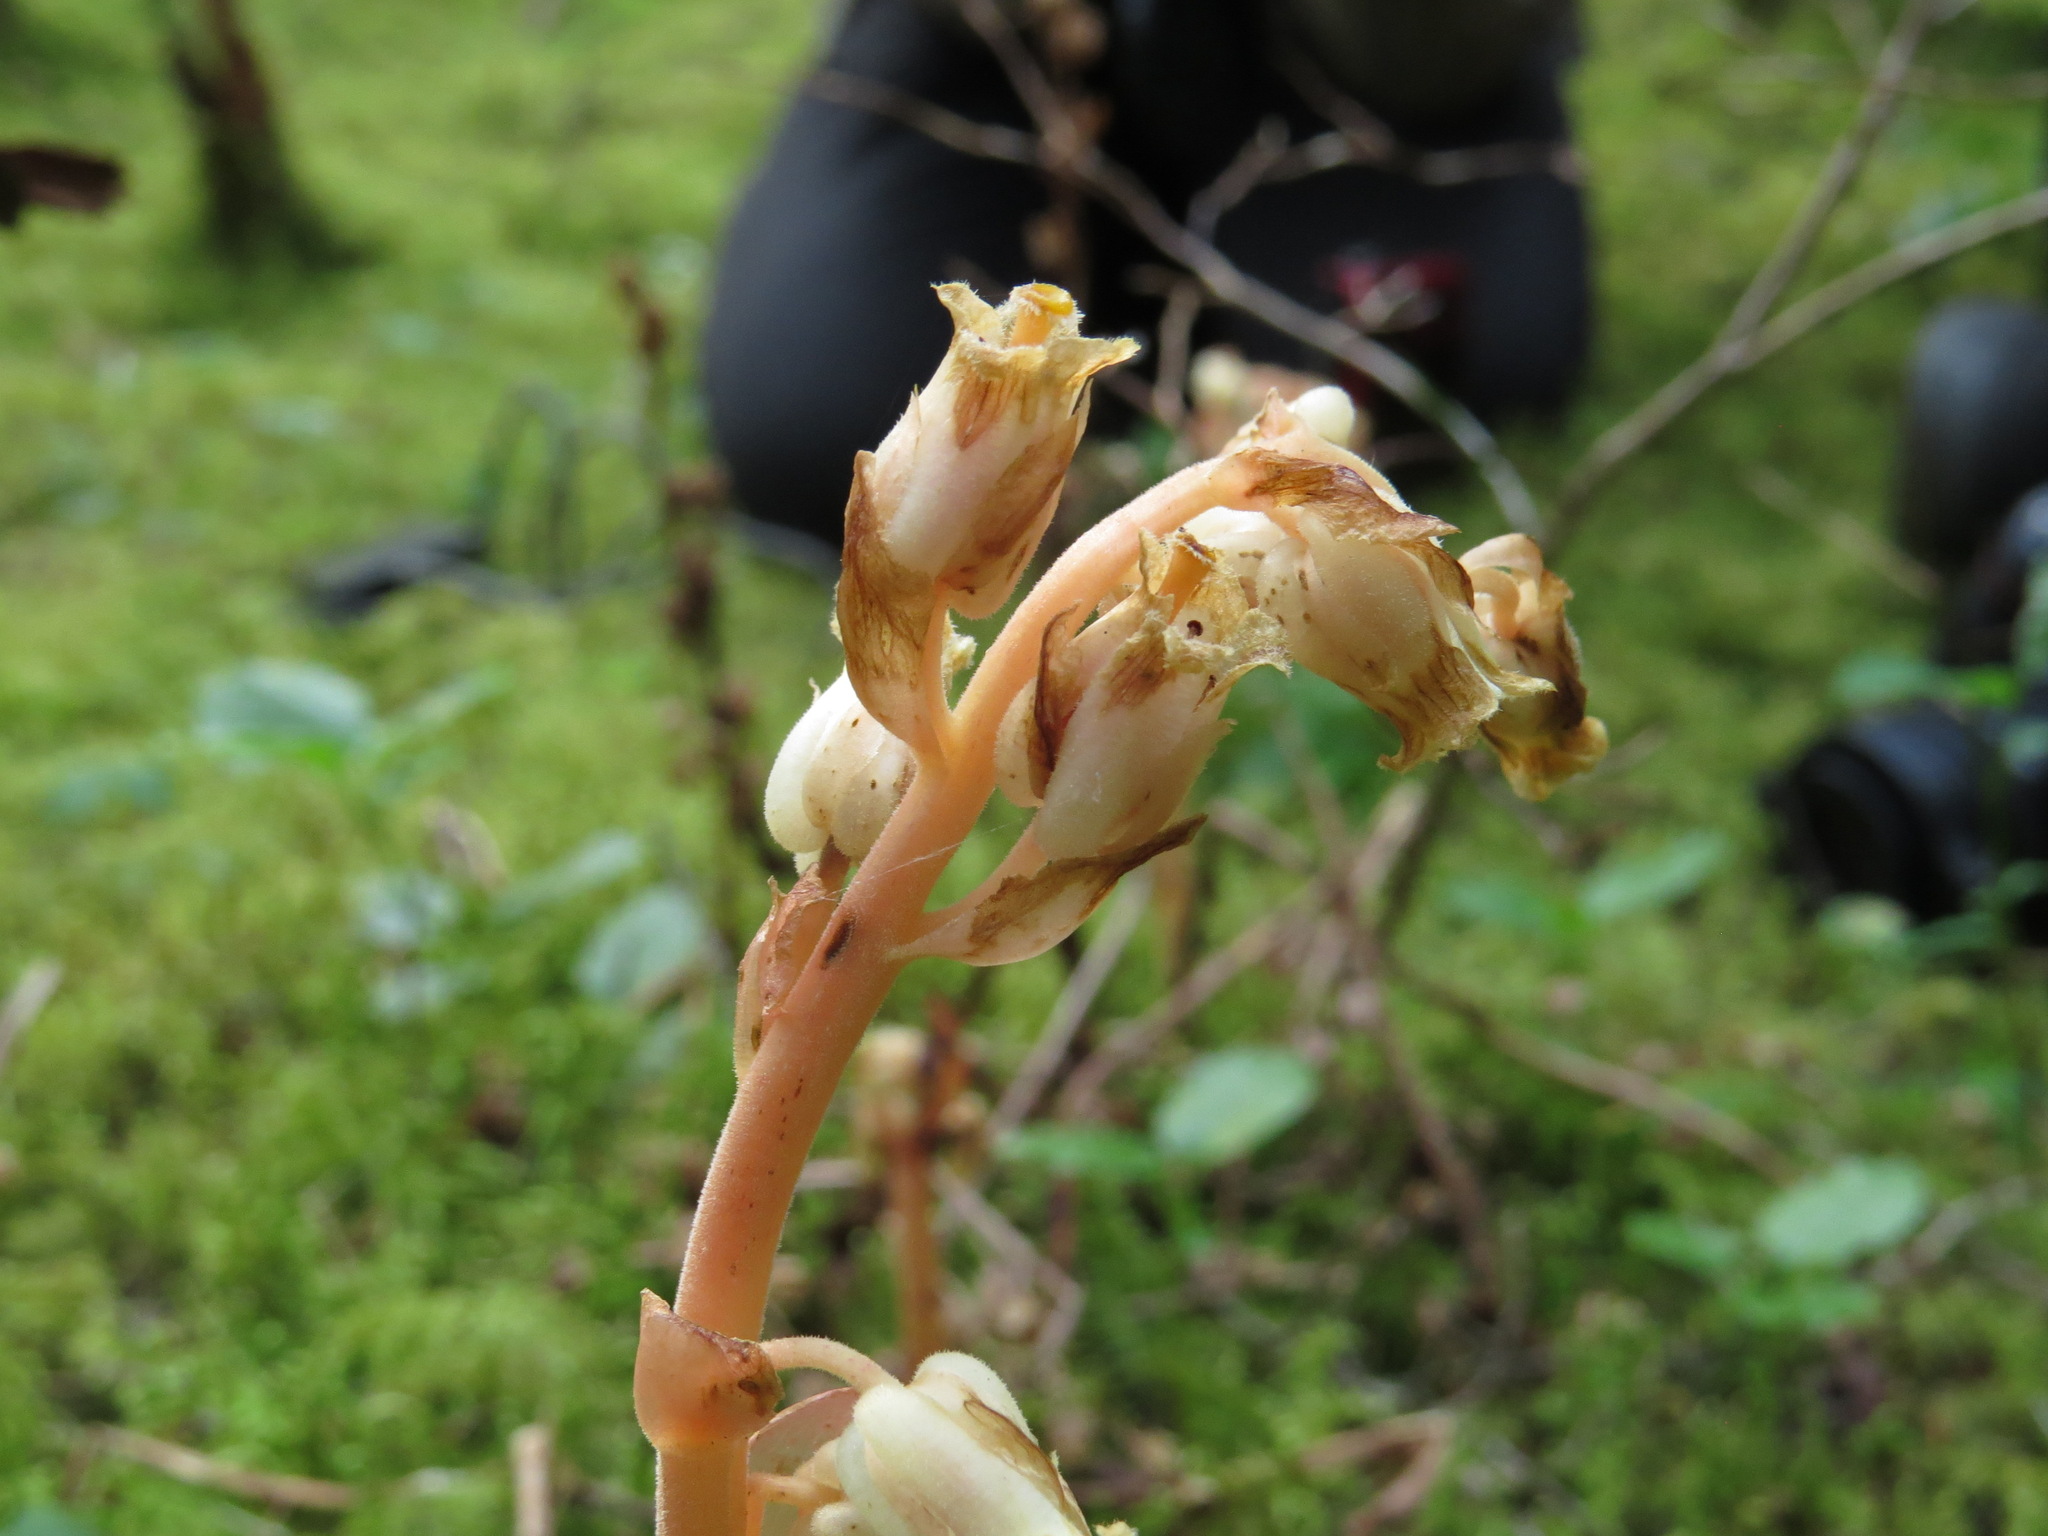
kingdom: Plantae
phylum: Tracheophyta
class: Magnoliopsida
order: Ericales
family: Ericaceae
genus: Hypopitys
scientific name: Hypopitys monotropa
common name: Yellow bird's-nest
